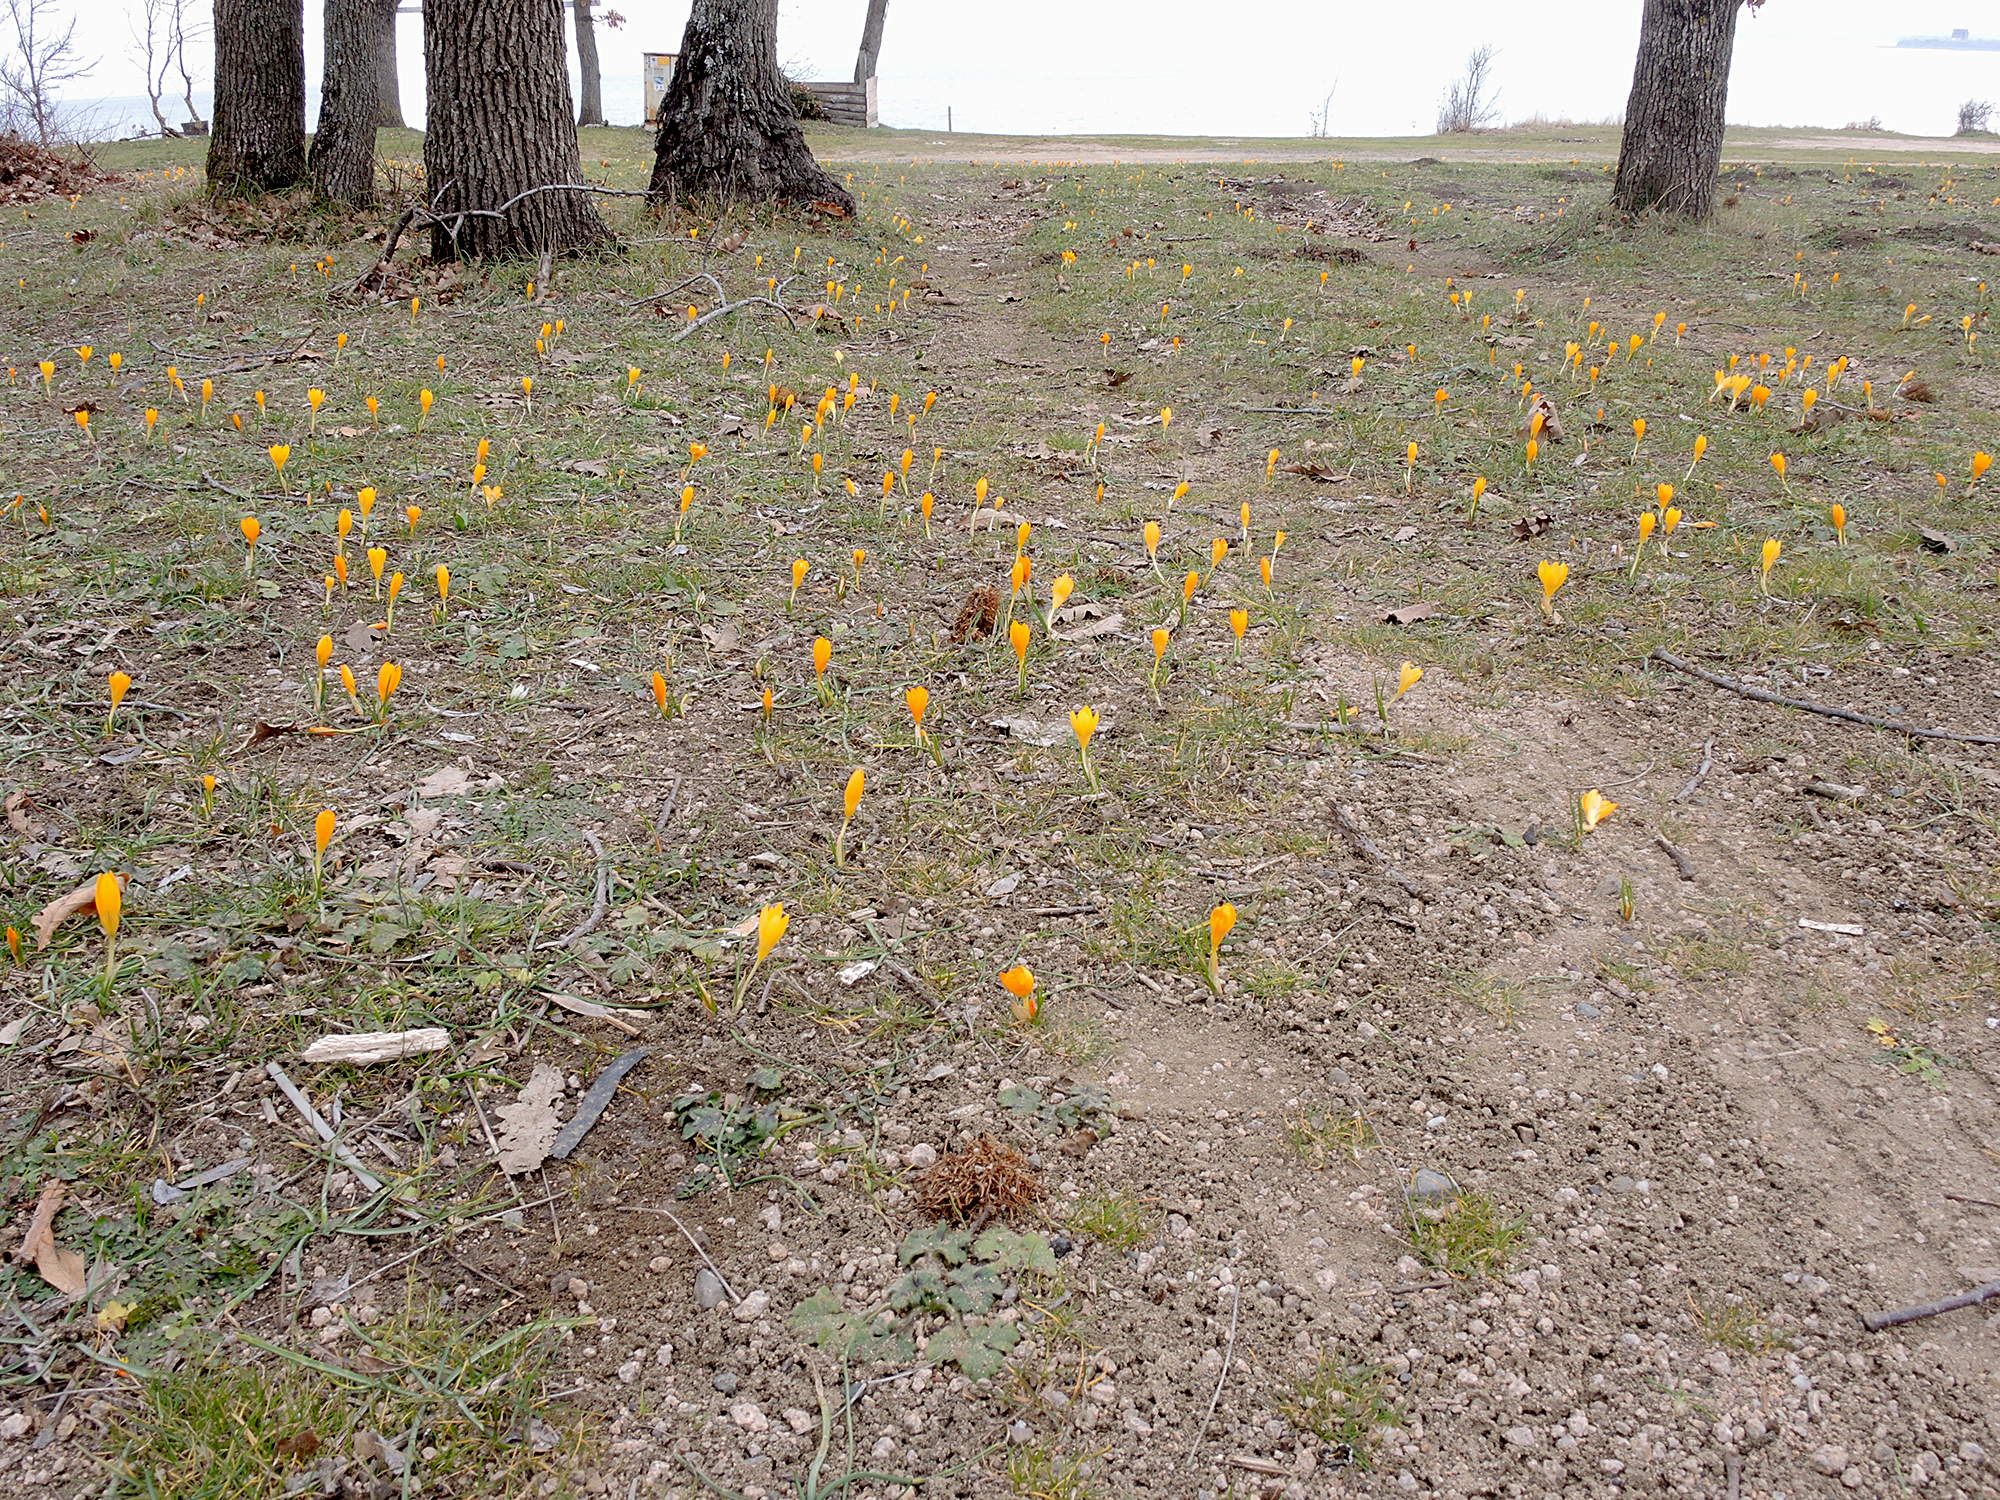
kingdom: Plantae
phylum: Tracheophyta
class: Liliopsida
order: Asparagales
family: Iridaceae
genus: Crocus
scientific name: Crocus flavus
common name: Yellow crocus
